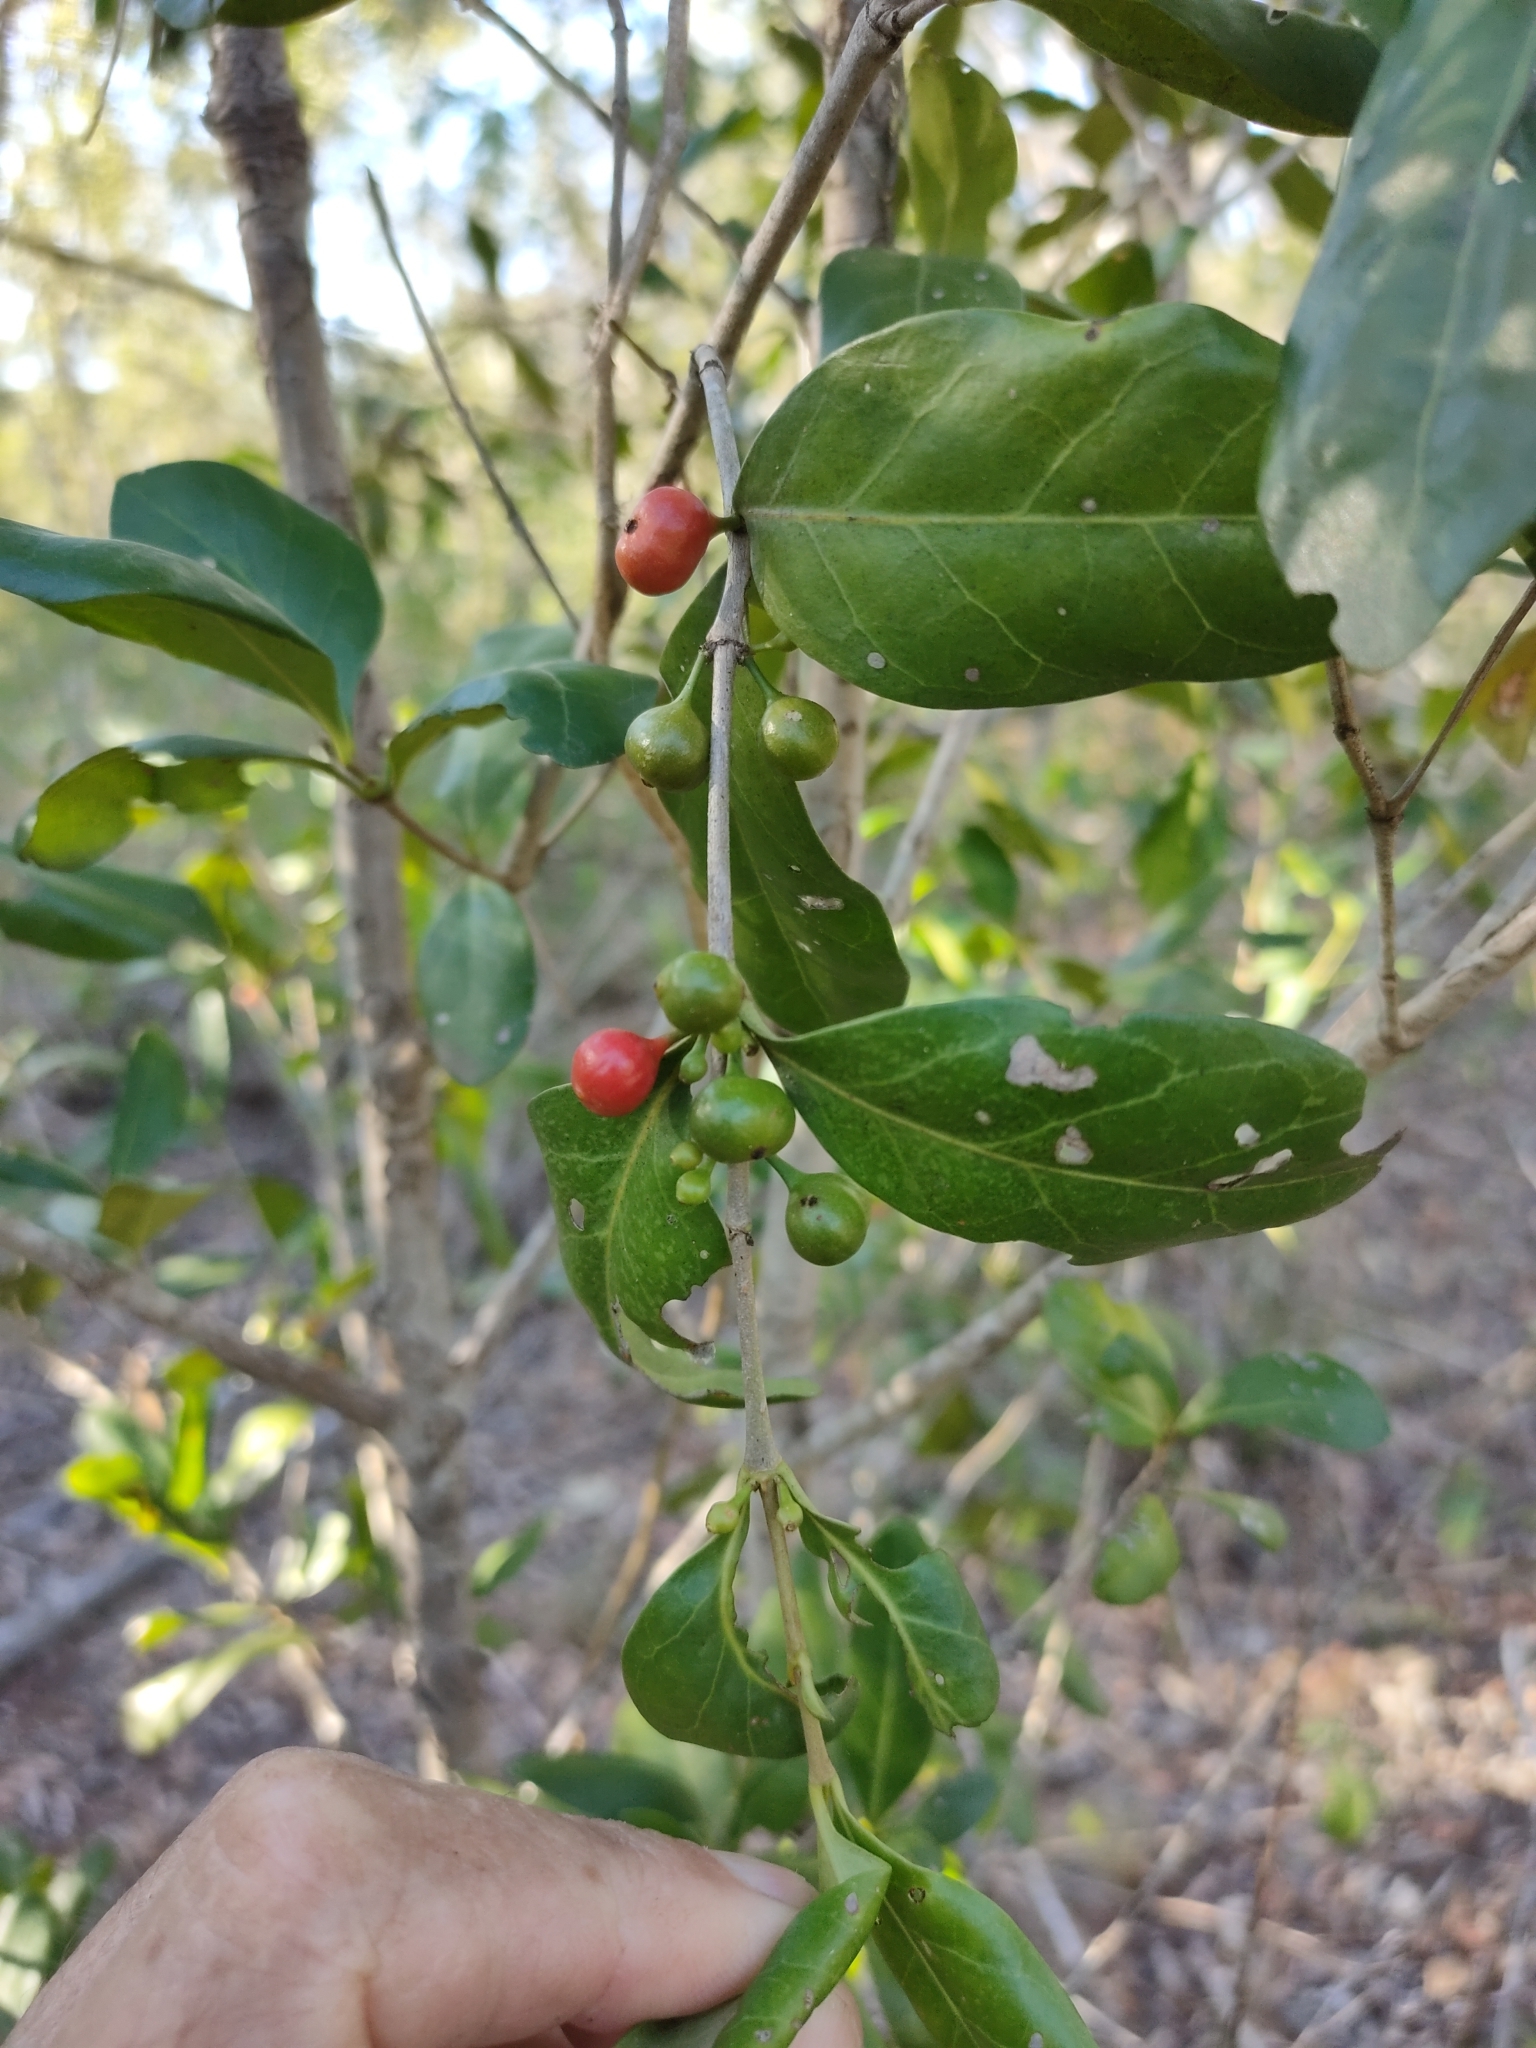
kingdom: Plantae
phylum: Tracheophyta
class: Magnoliopsida
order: Gentianales
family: Rubiaceae
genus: Cyclophyllum
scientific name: Cyclophyllum coprosmoides
